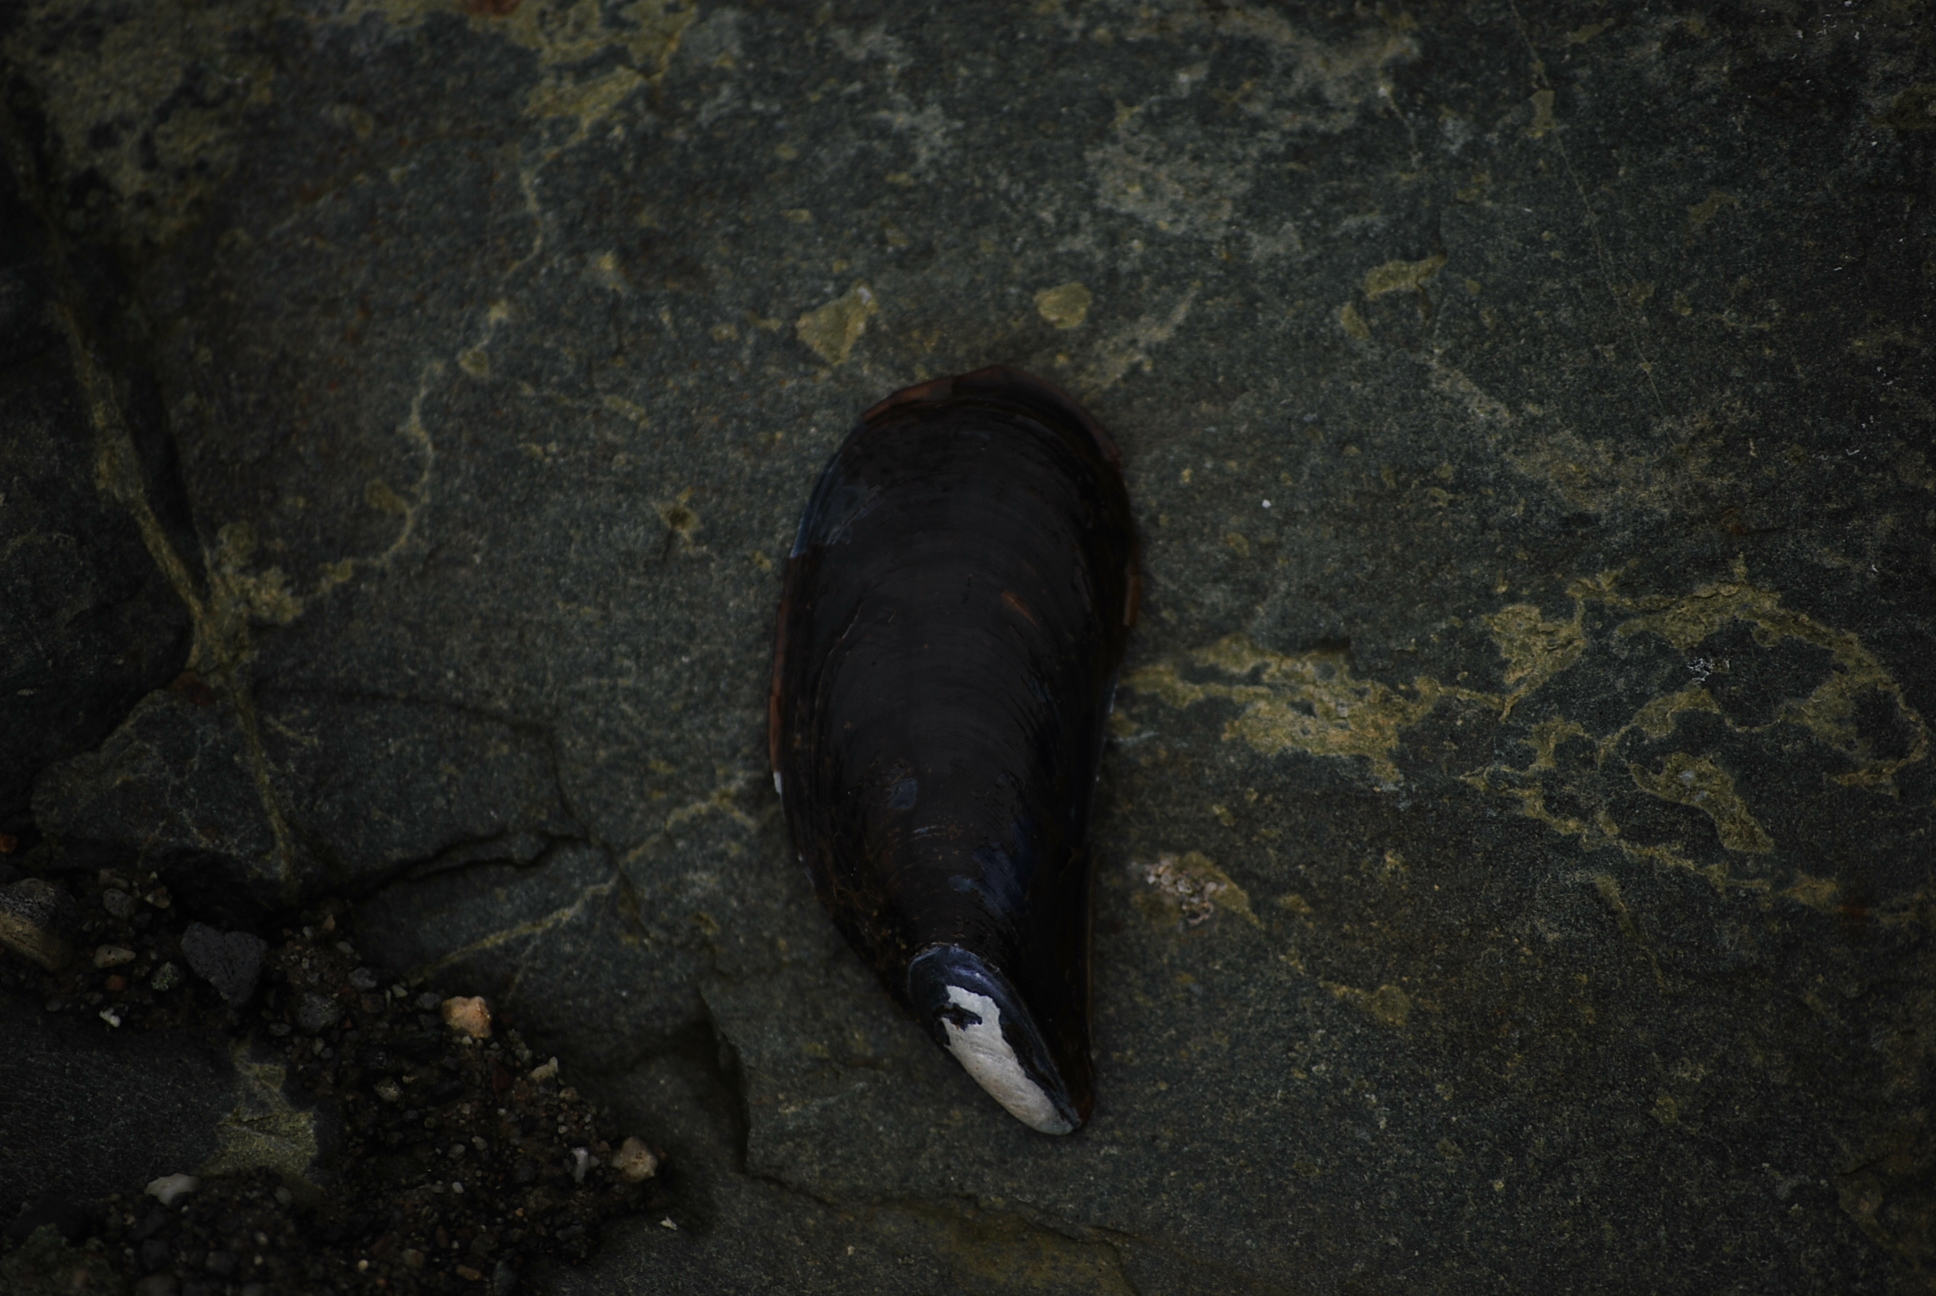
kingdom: Animalia
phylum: Mollusca
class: Bivalvia
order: Mytilida
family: Mytilidae
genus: Mytilus
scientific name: Mytilus
